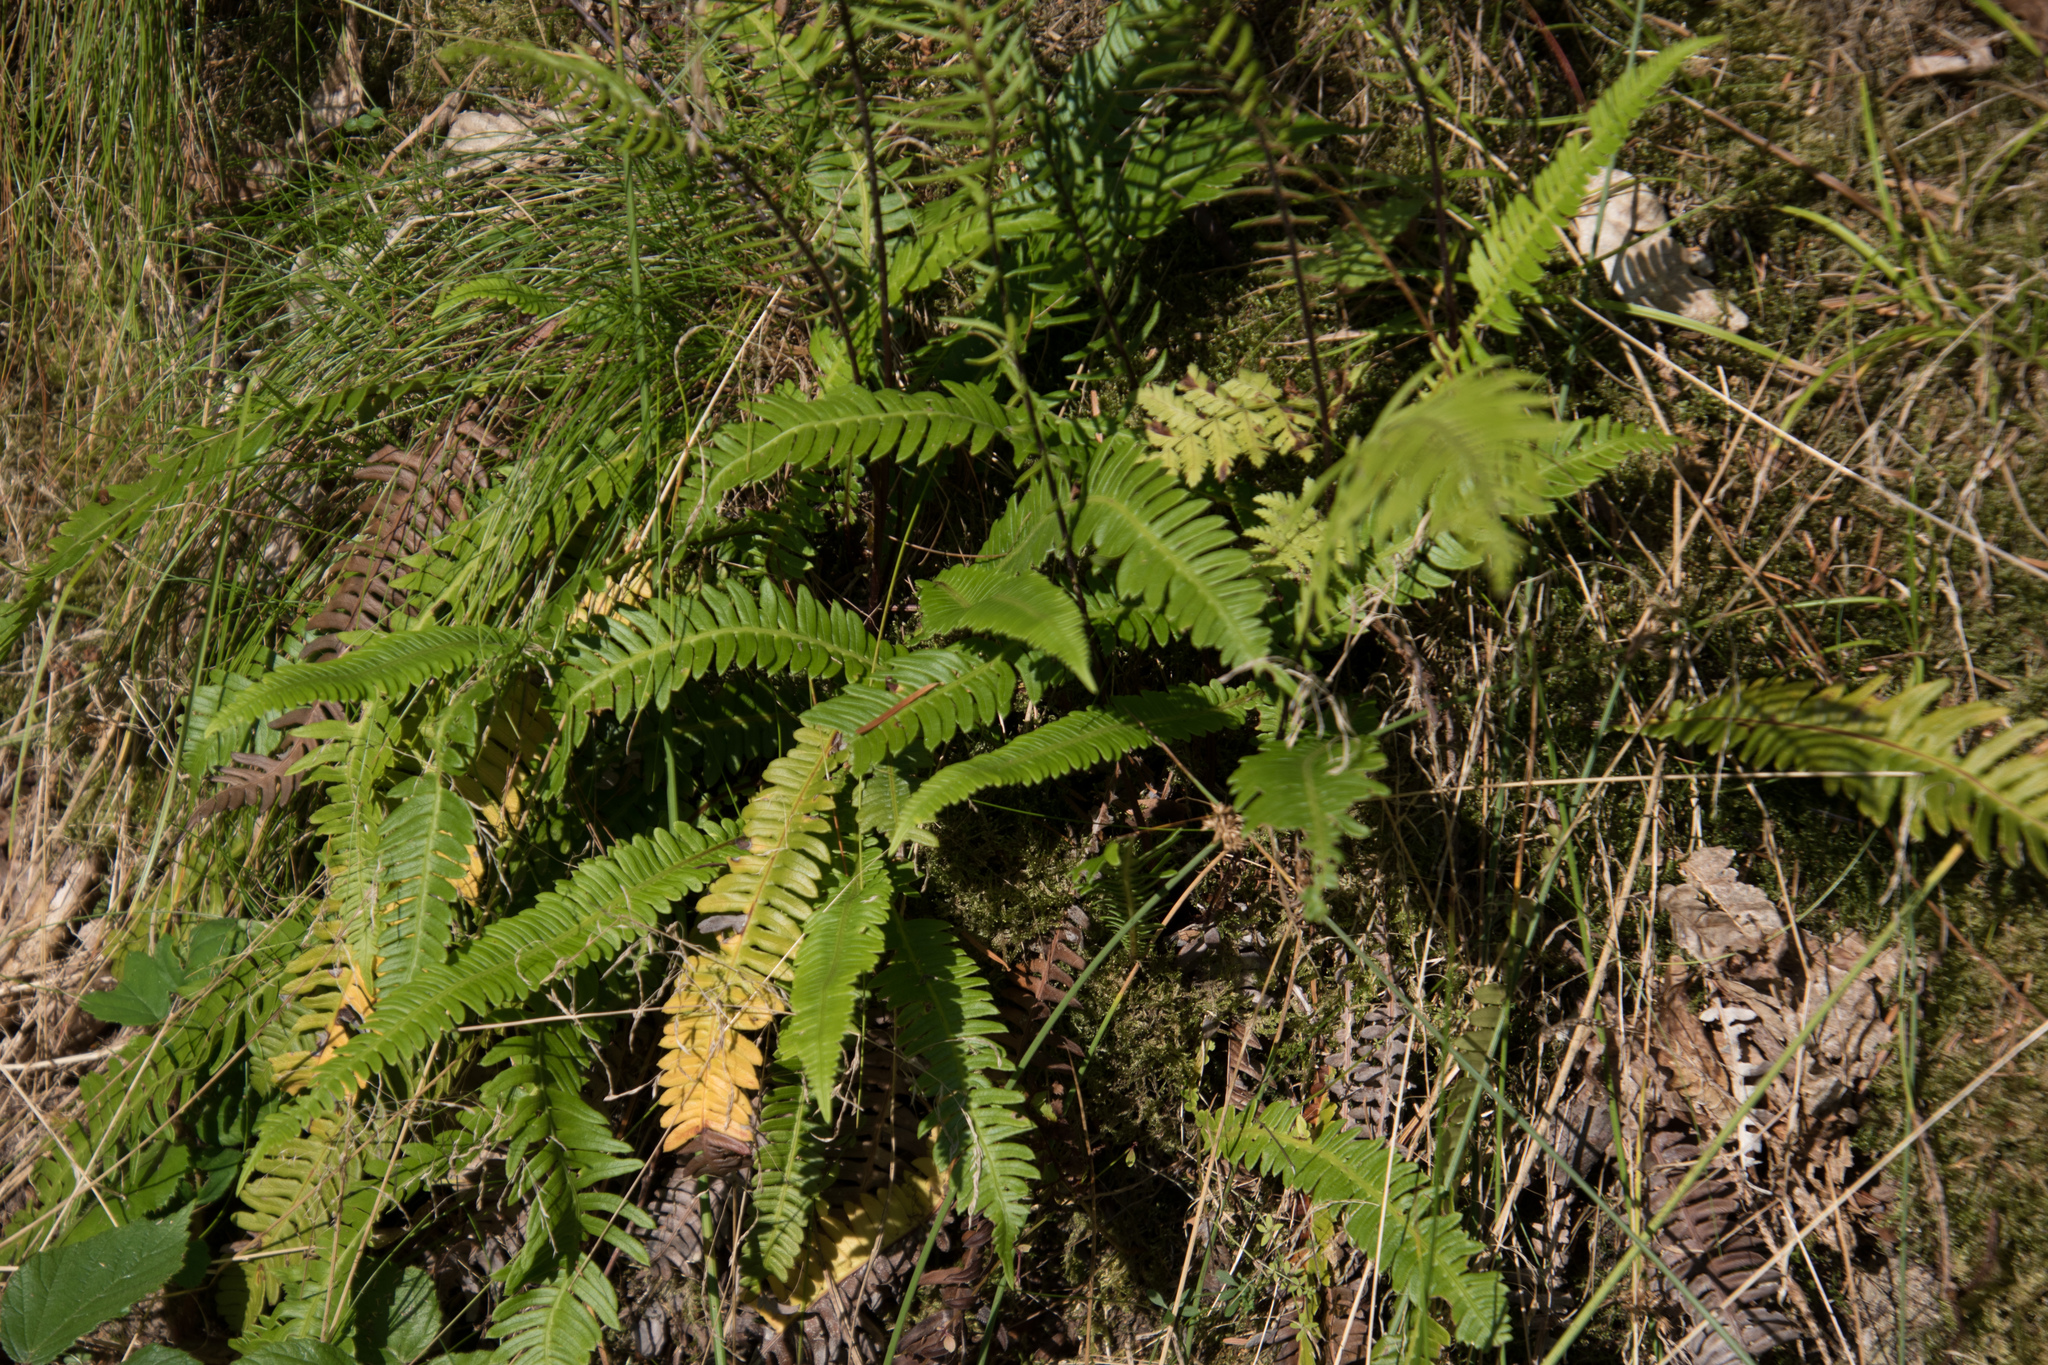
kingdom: Plantae
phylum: Tracheophyta
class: Polypodiopsida
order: Polypodiales
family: Blechnaceae
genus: Struthiopteris
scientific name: Struthiopteris spicant
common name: Deer fern
